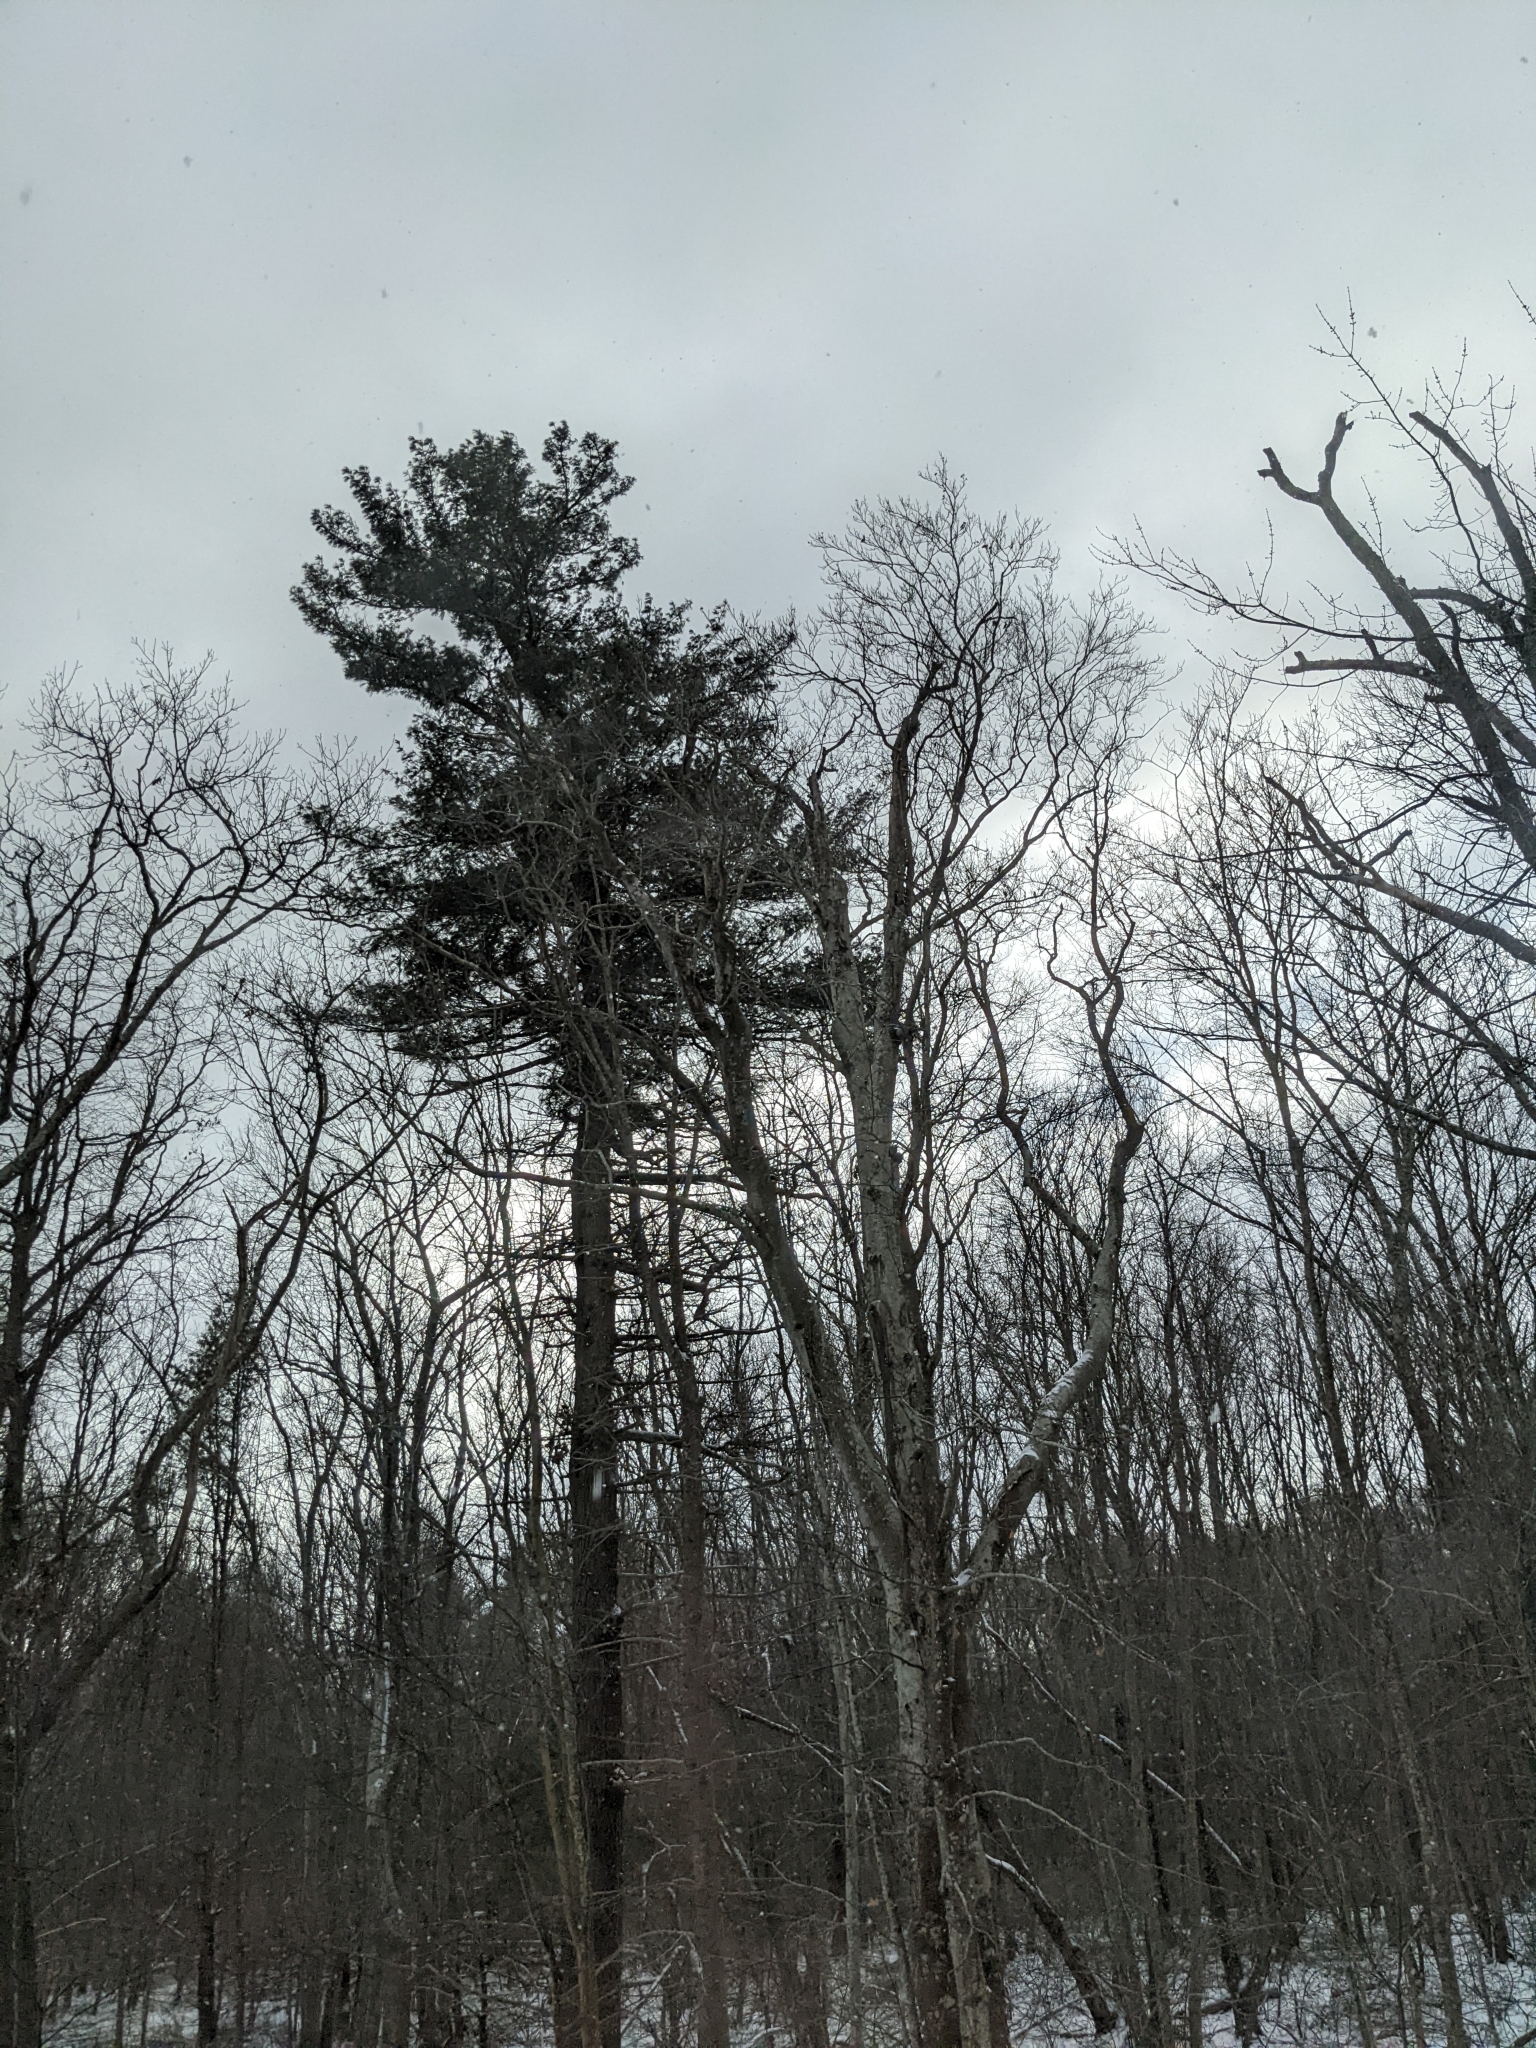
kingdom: Plantae
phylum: Tracheophyta
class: Pinopsida
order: Pinales
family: Pinaceae
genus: Pinus
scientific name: Pinus strobus
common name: Weymouth pine
